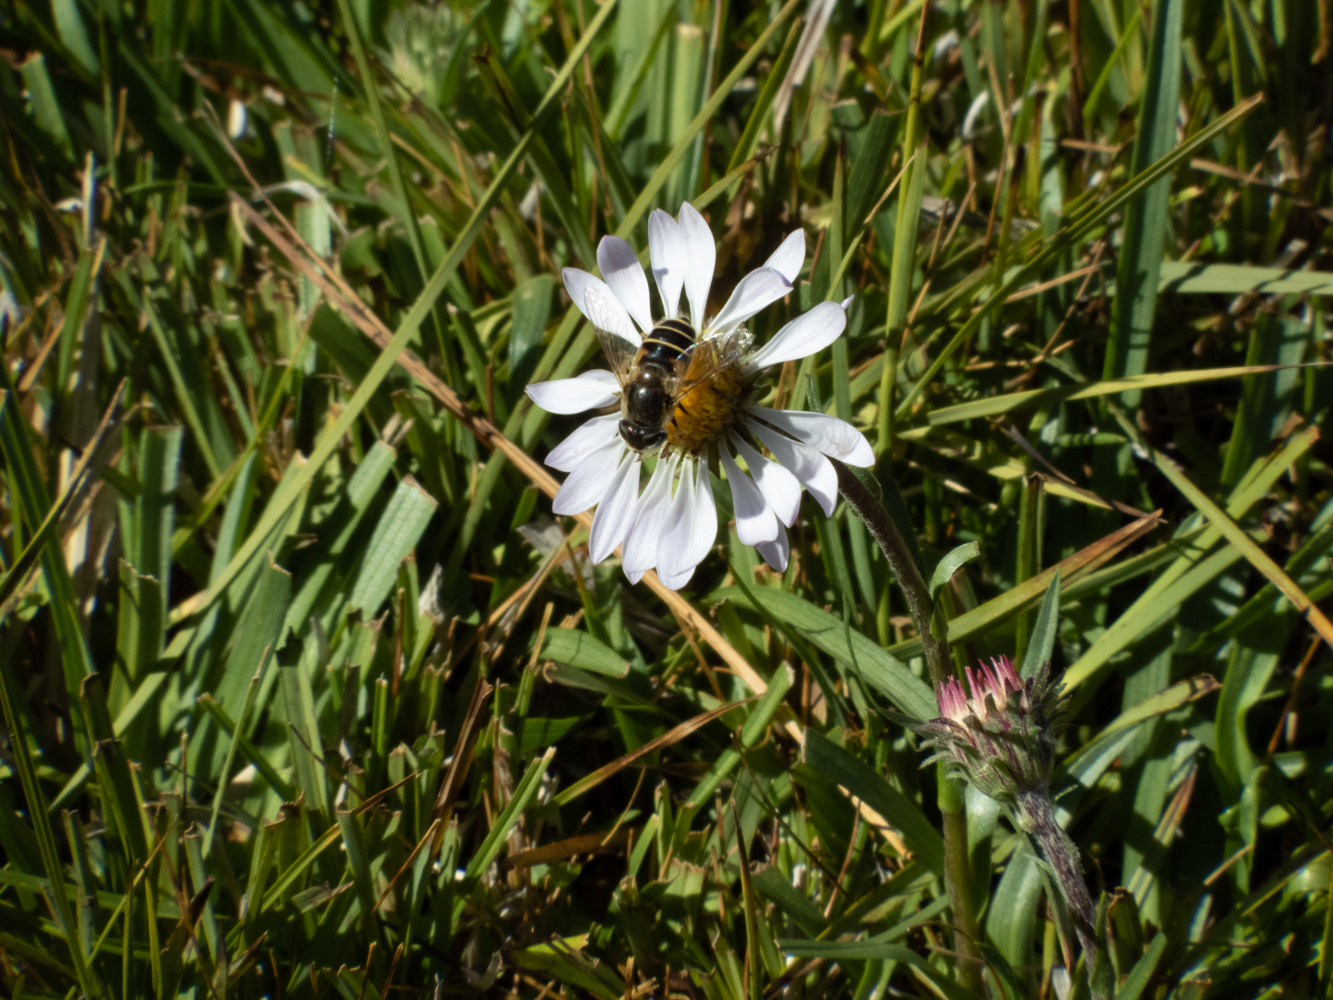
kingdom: Animalia
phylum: Arthropoda
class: Insecta
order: Diptera
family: Syrphidae
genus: Eristalis
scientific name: Eristalis hirta
